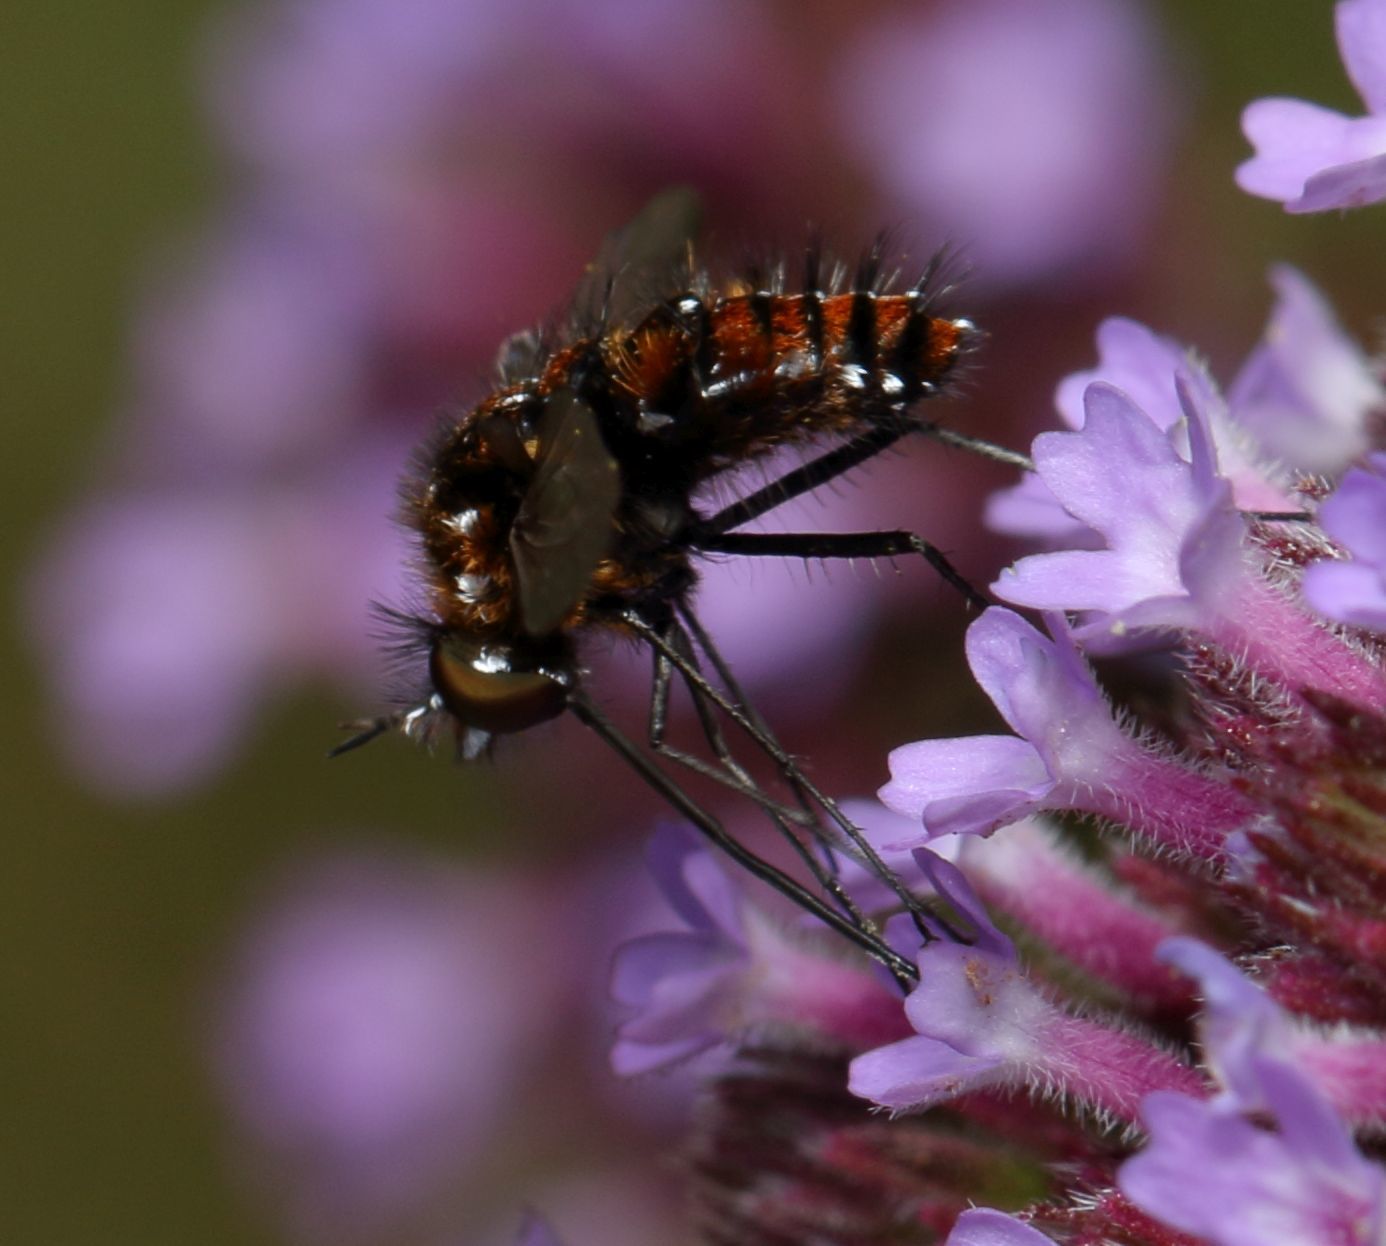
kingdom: Animalia
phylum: Arthropoda
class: Insecta
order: Diptera
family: Bombyliidae
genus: Bombylella
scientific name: Bombylella elegans
